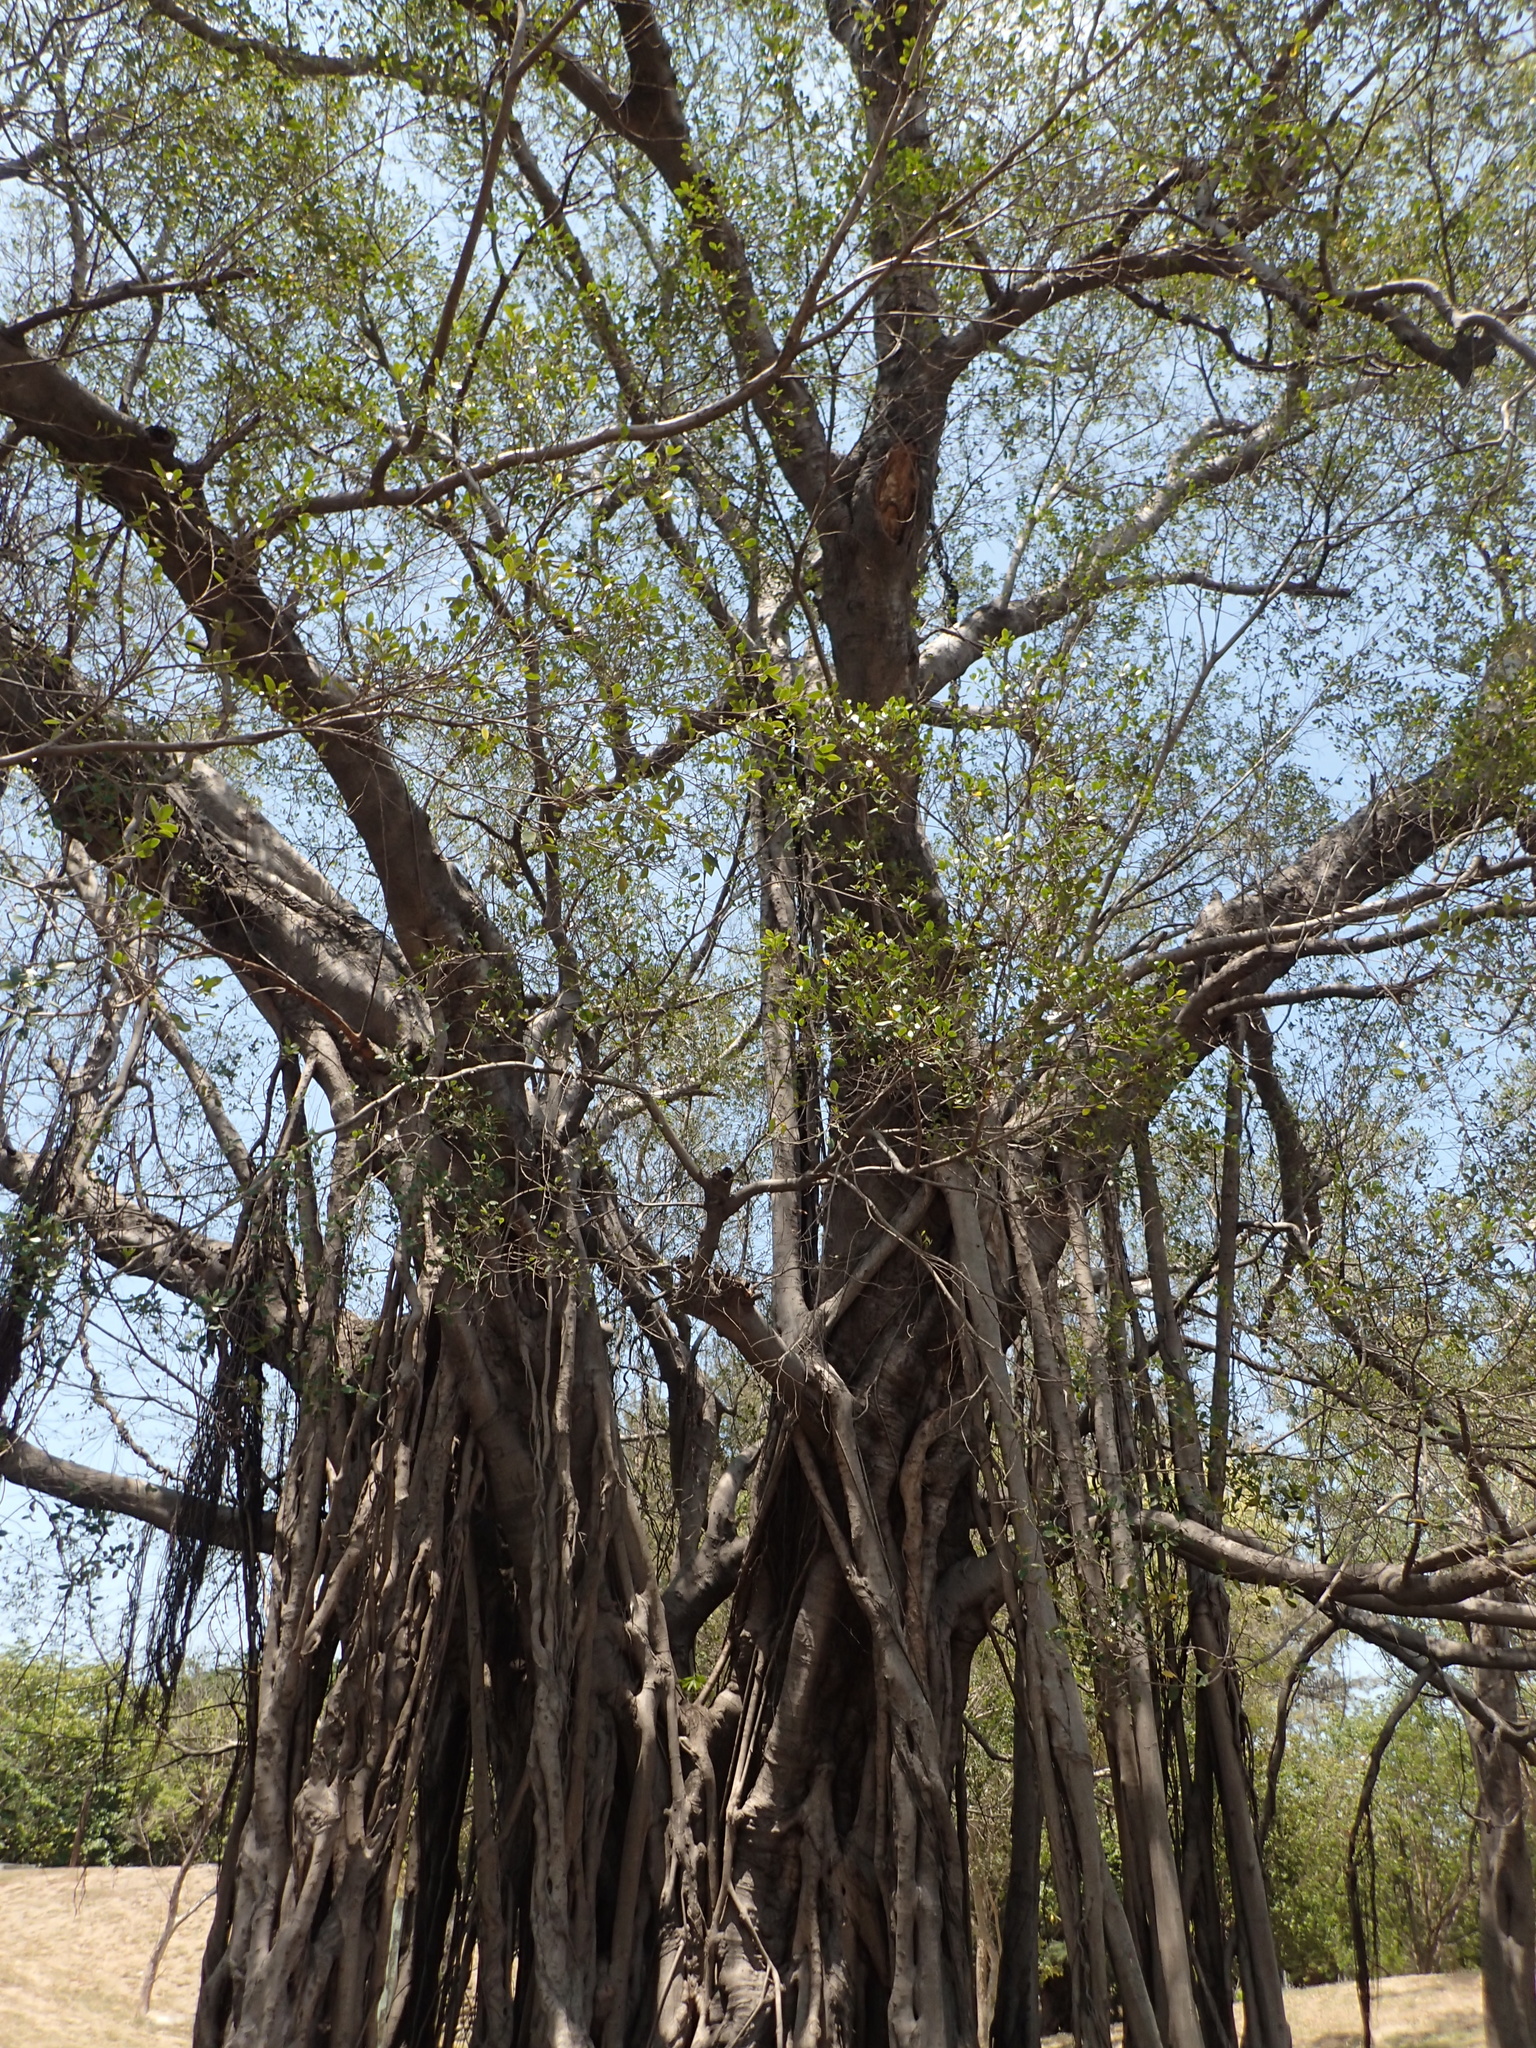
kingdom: Plantae
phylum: Tracheophyta
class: Magnoliopsida
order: Rosales
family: Moraceae
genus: Ficus
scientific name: Ficus microcarpa
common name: Chinese banyan
